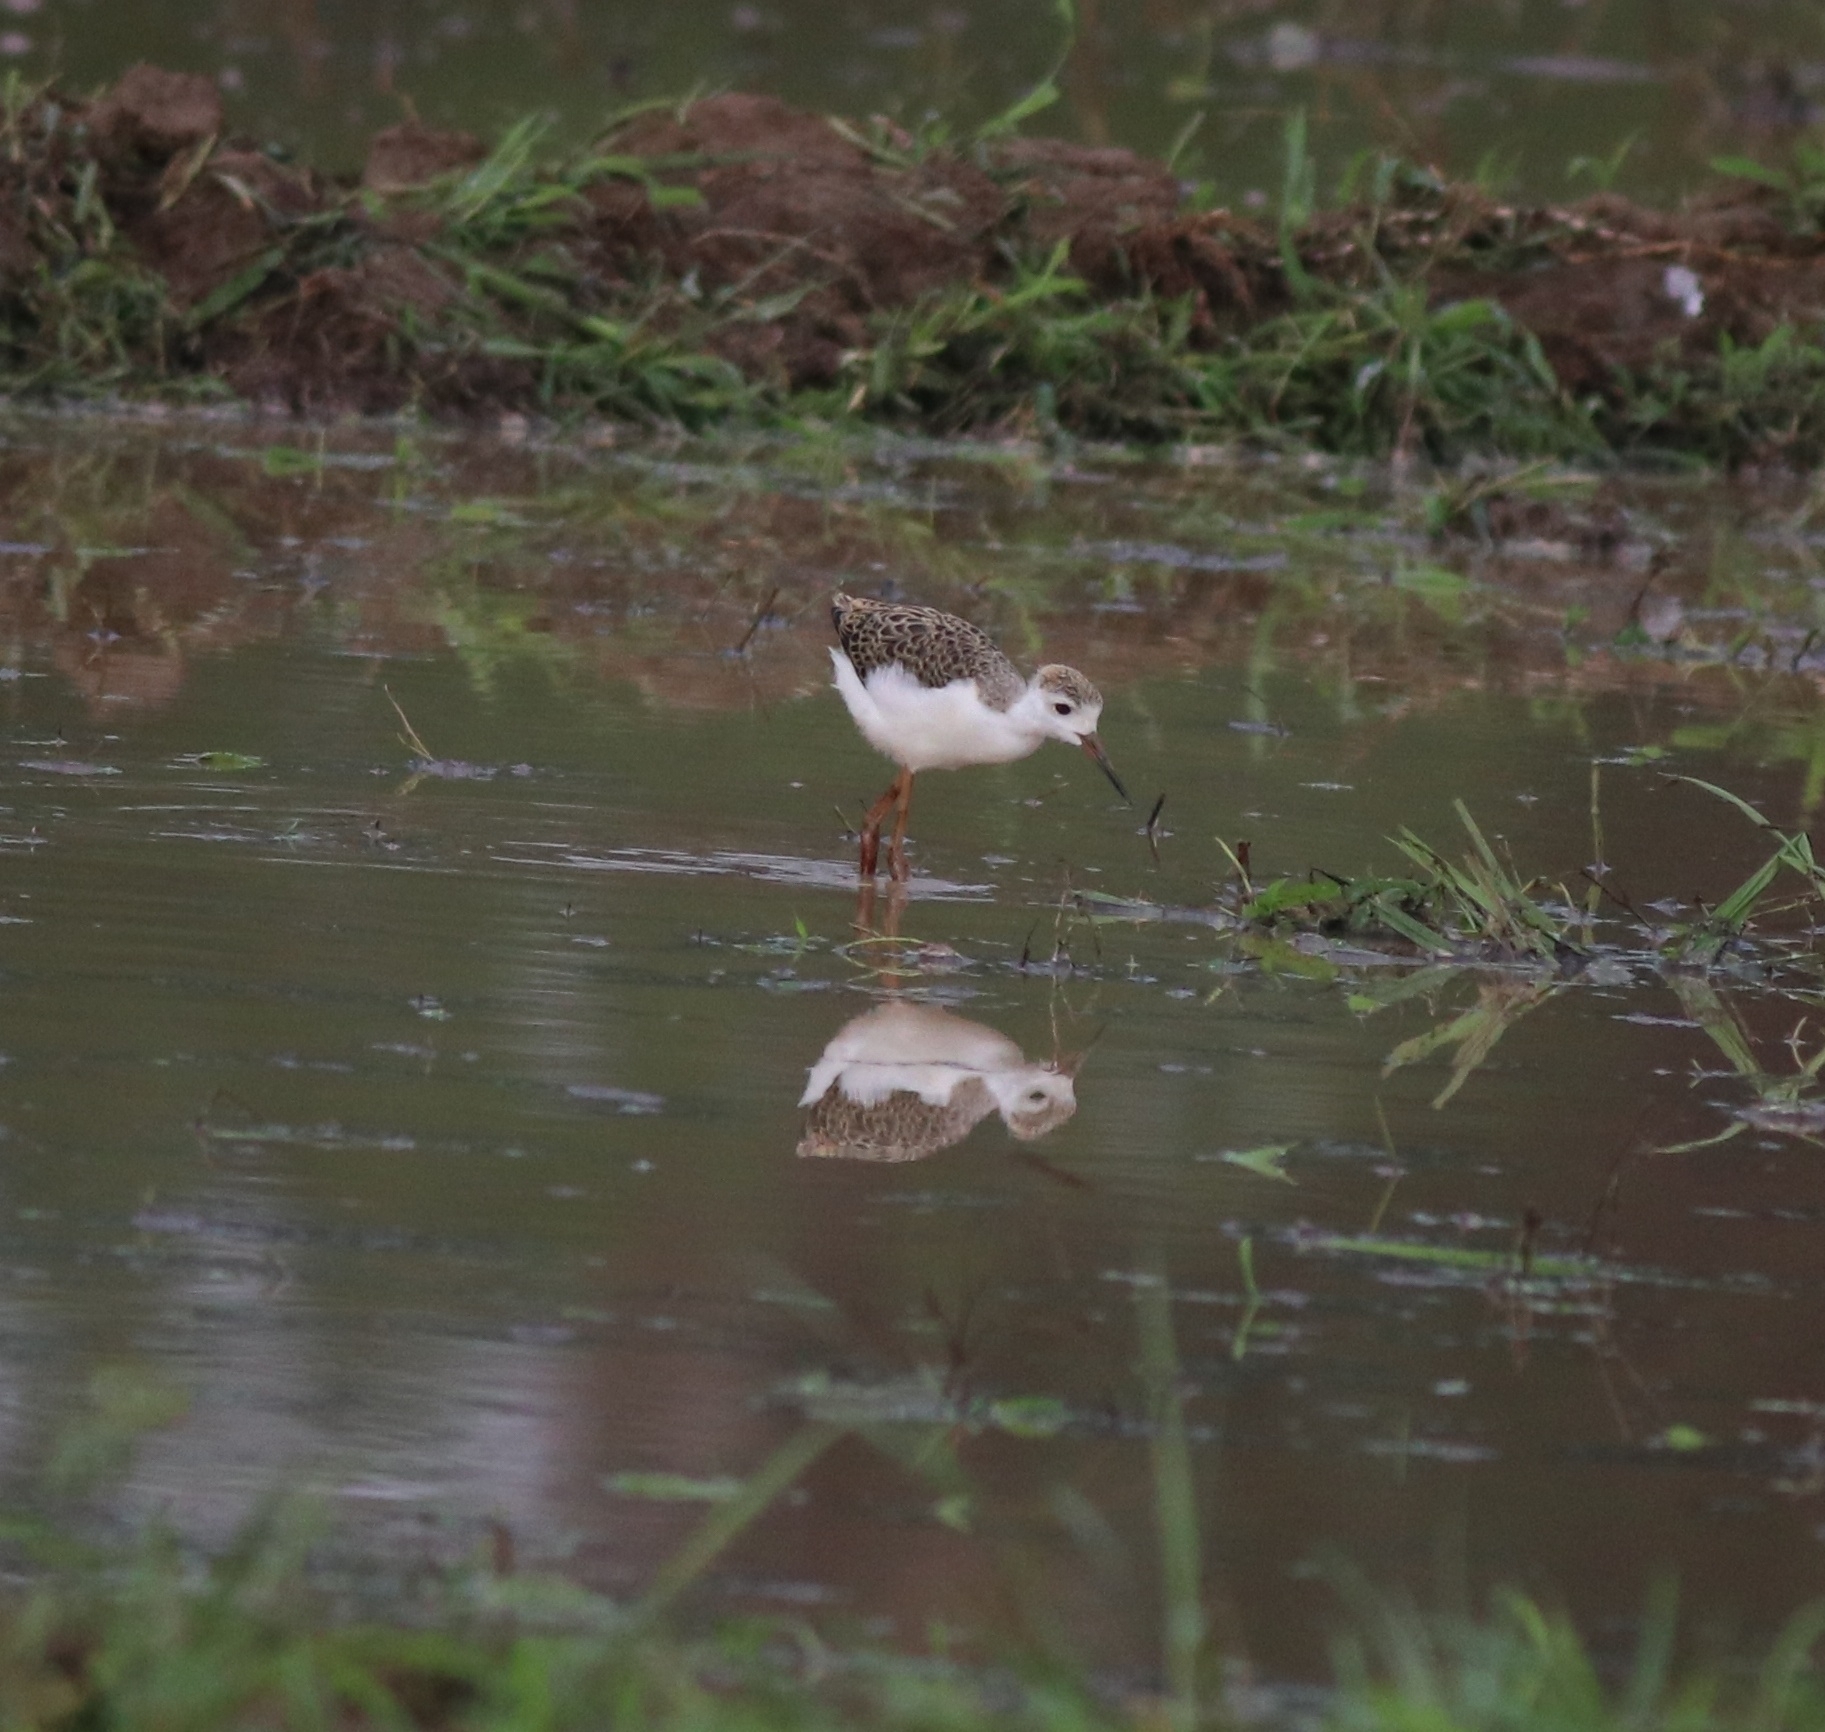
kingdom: Animalia
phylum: Chordata
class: Aves
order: Charadriiformes
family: Recurvirostridae
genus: Himantopus
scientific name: Himantopus himantopus
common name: Black-winged stilt
